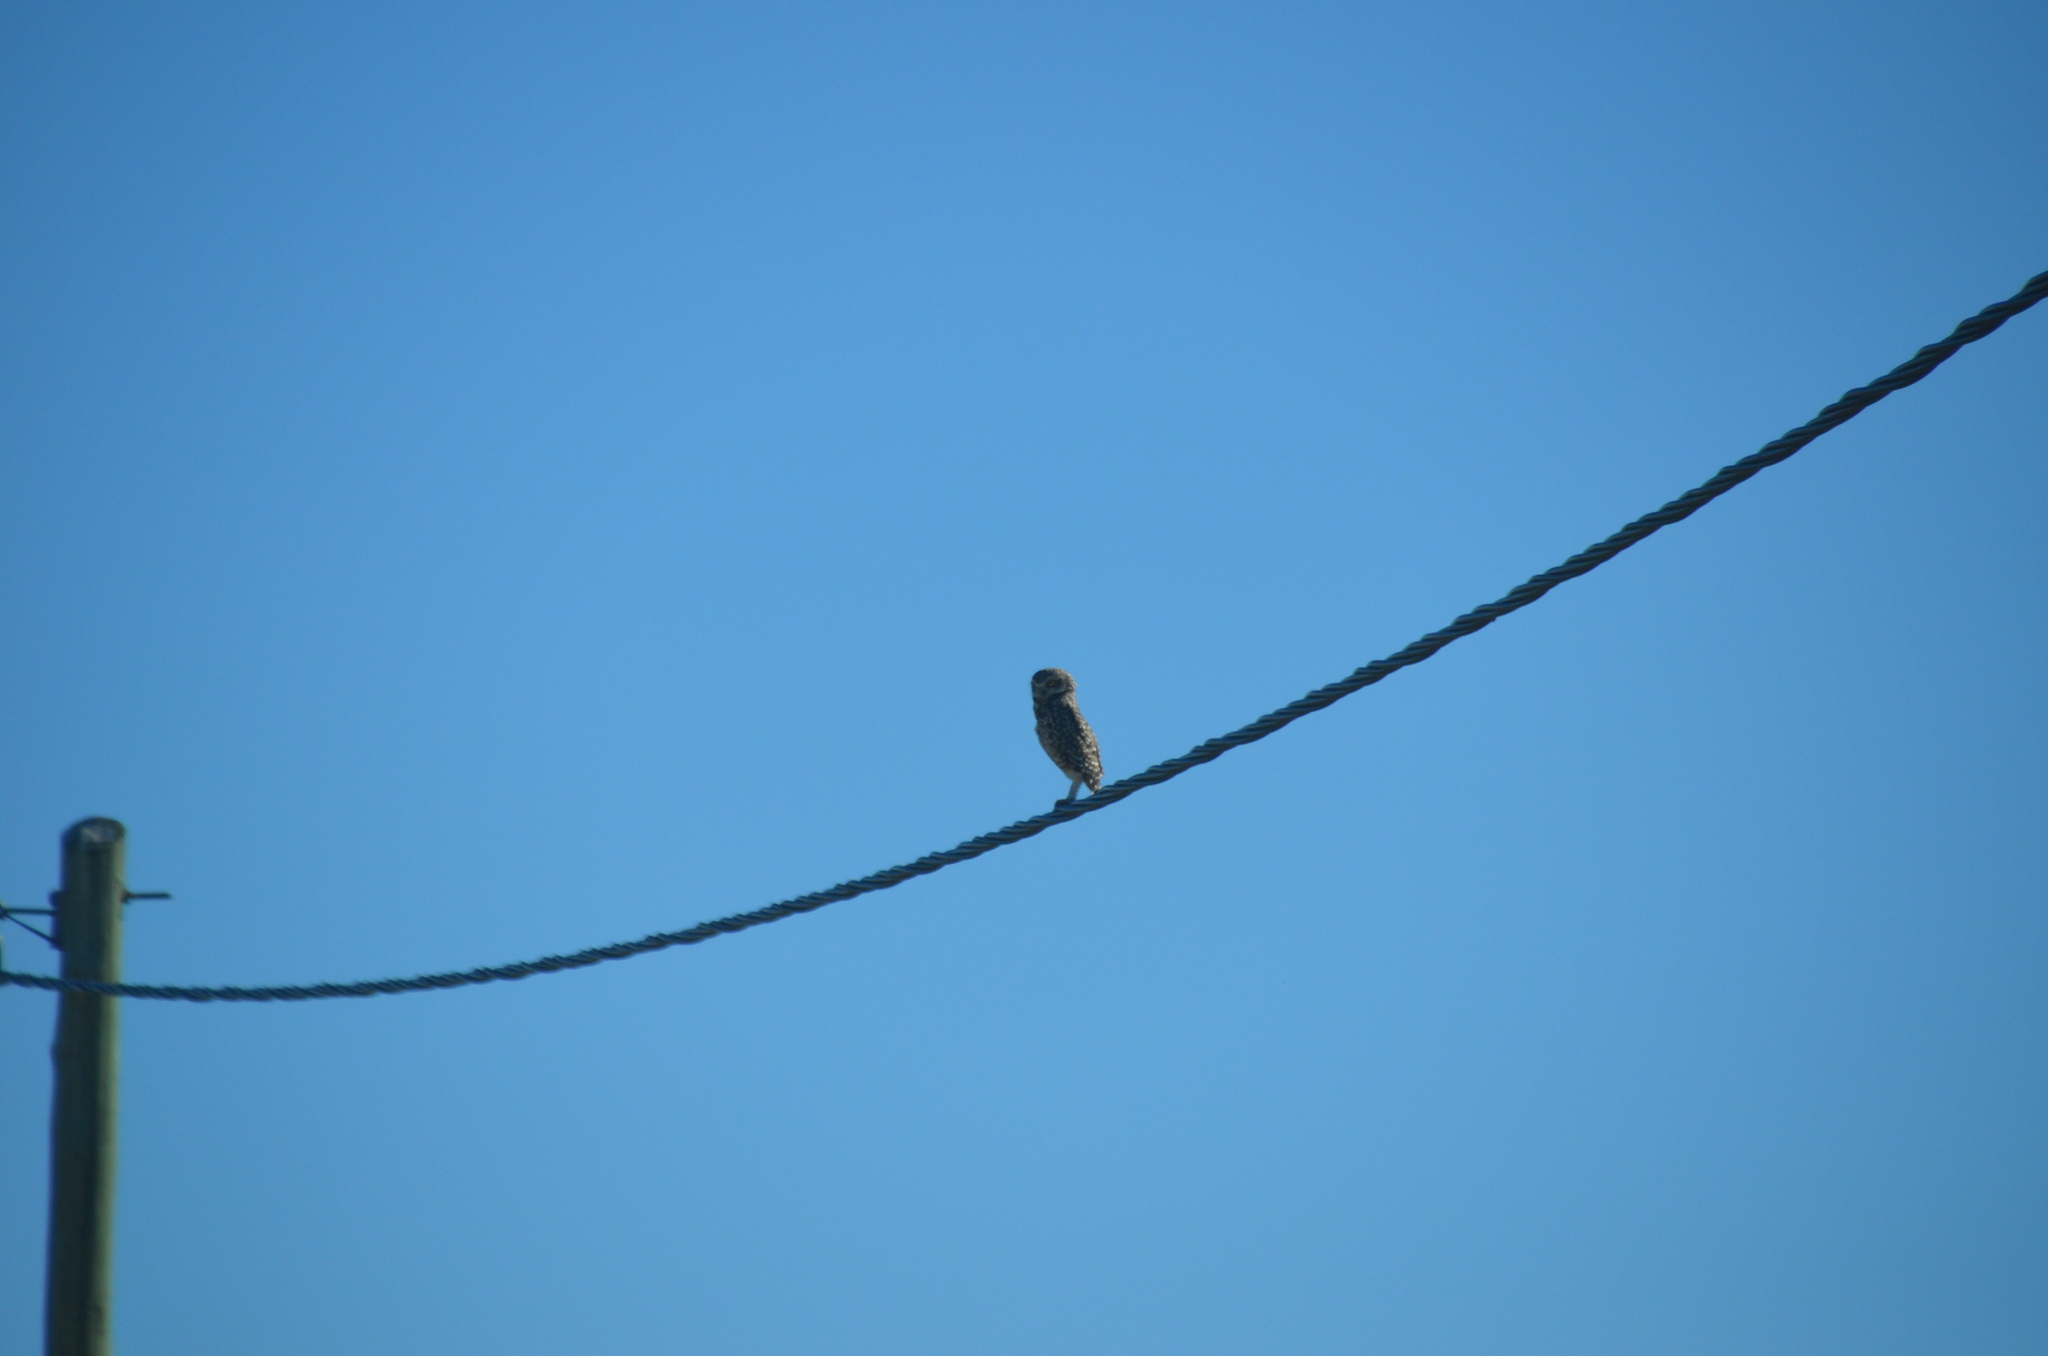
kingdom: Animalia
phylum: Chordata
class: Aves
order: Strigiformes
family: Strigidae
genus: Athene
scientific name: Athene cunicularia
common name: Burrowing owl
